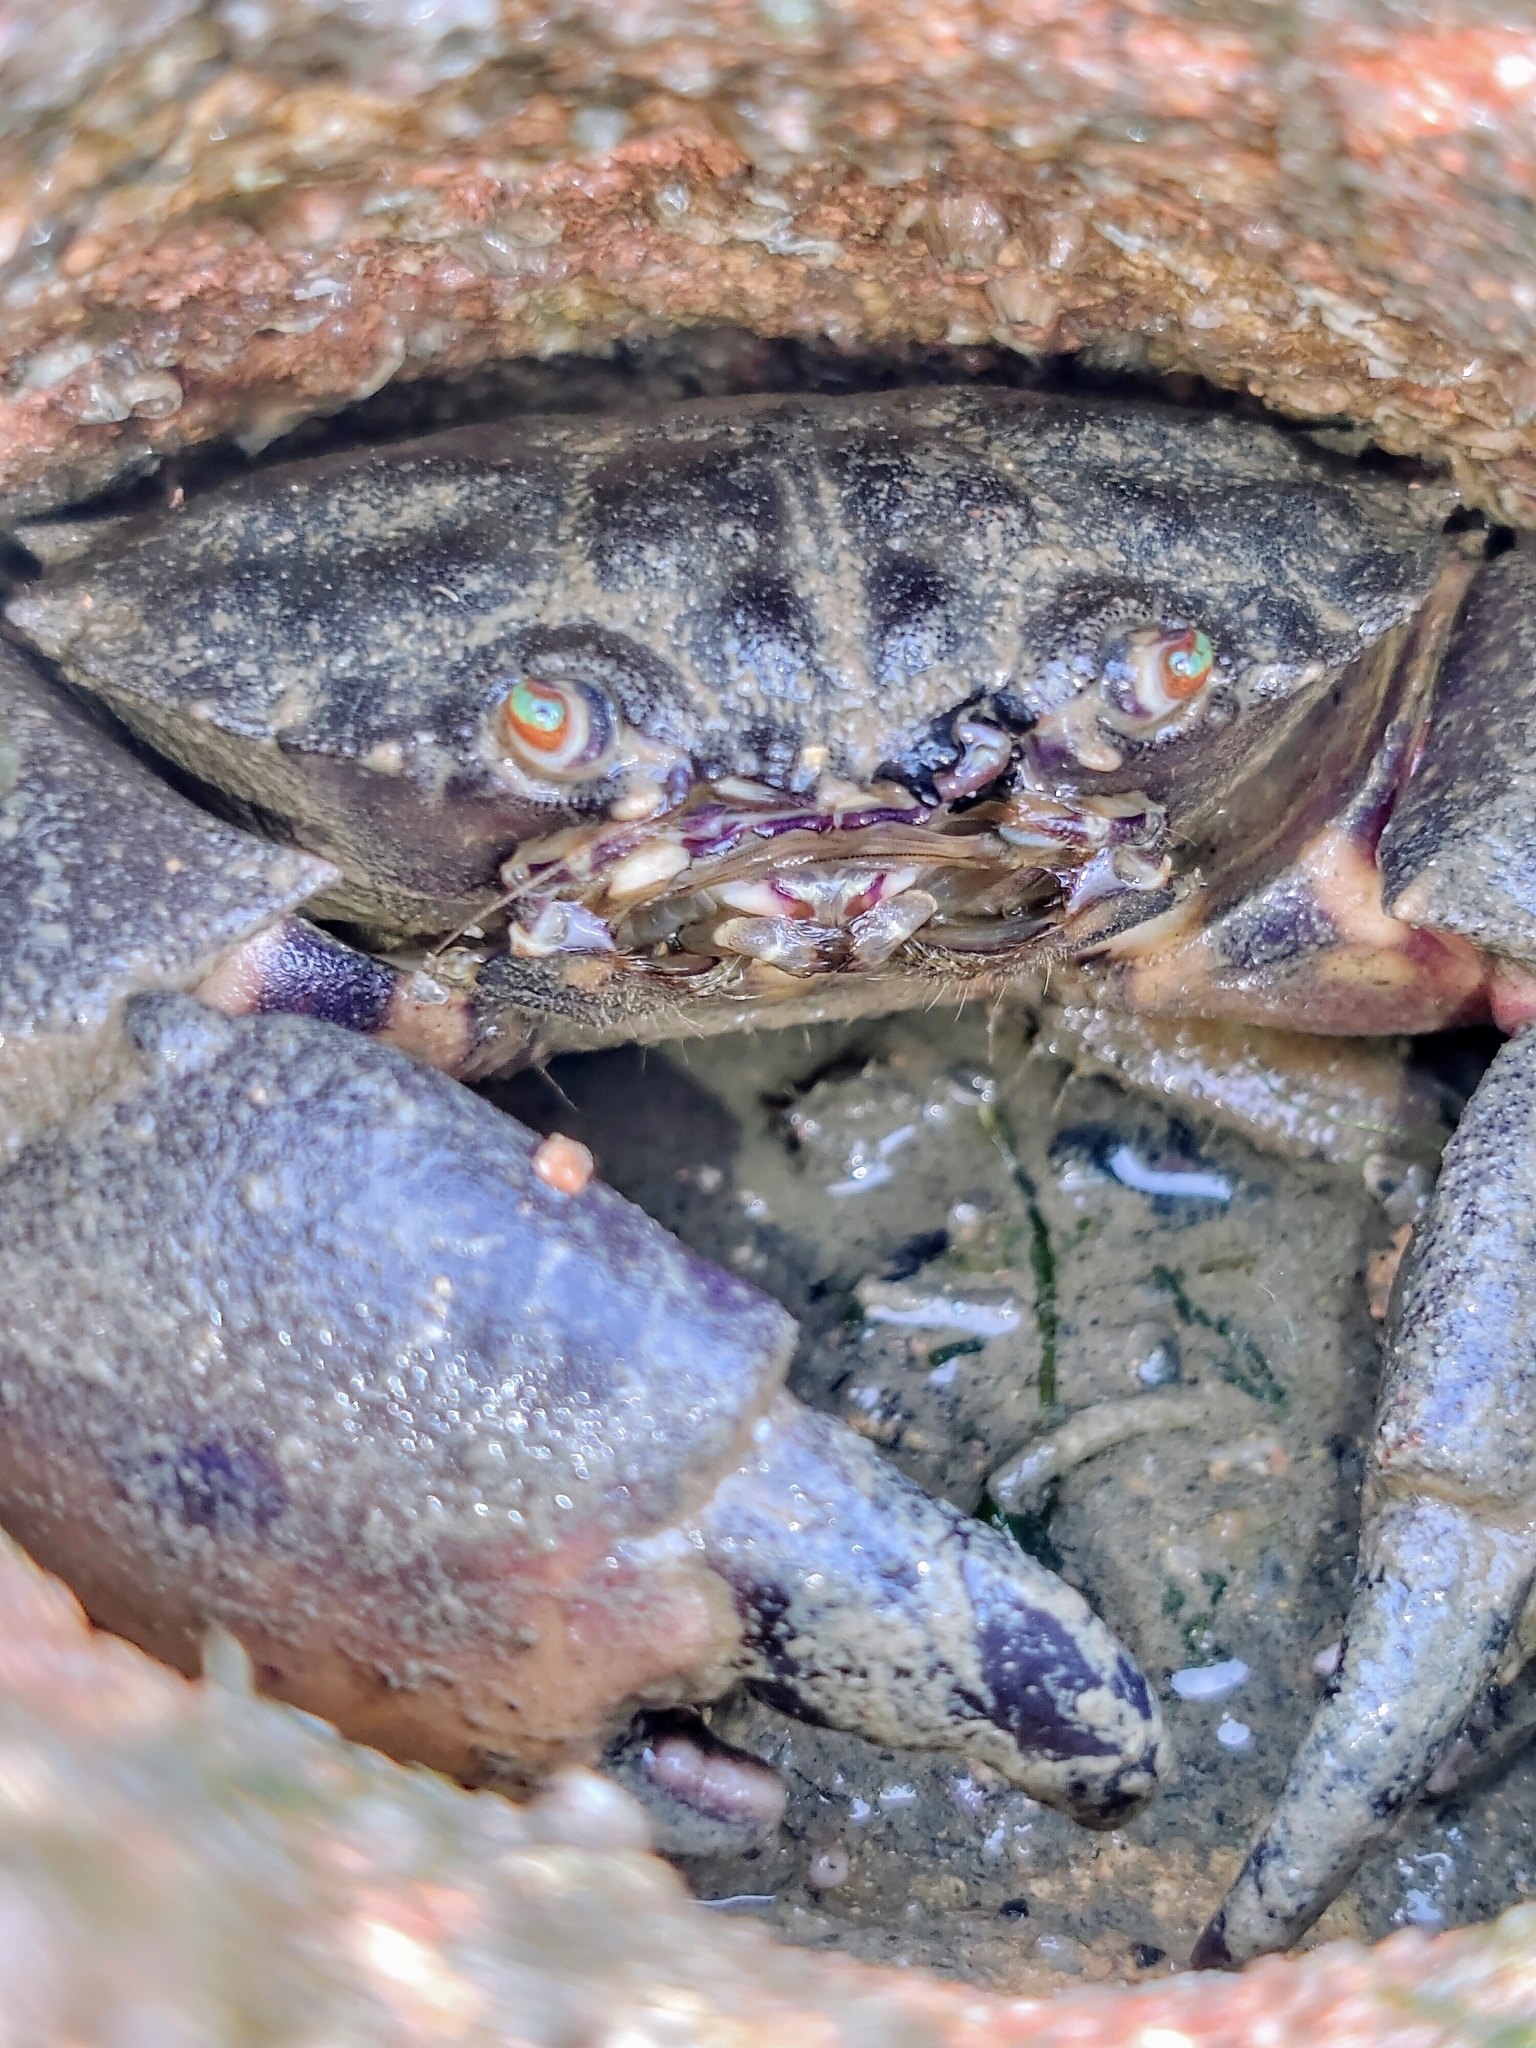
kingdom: Animalia
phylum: Arthropoda
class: Malacostraca
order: Decapoda
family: Menippidae
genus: Myomenippe
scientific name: Myomenippe hardwickii
